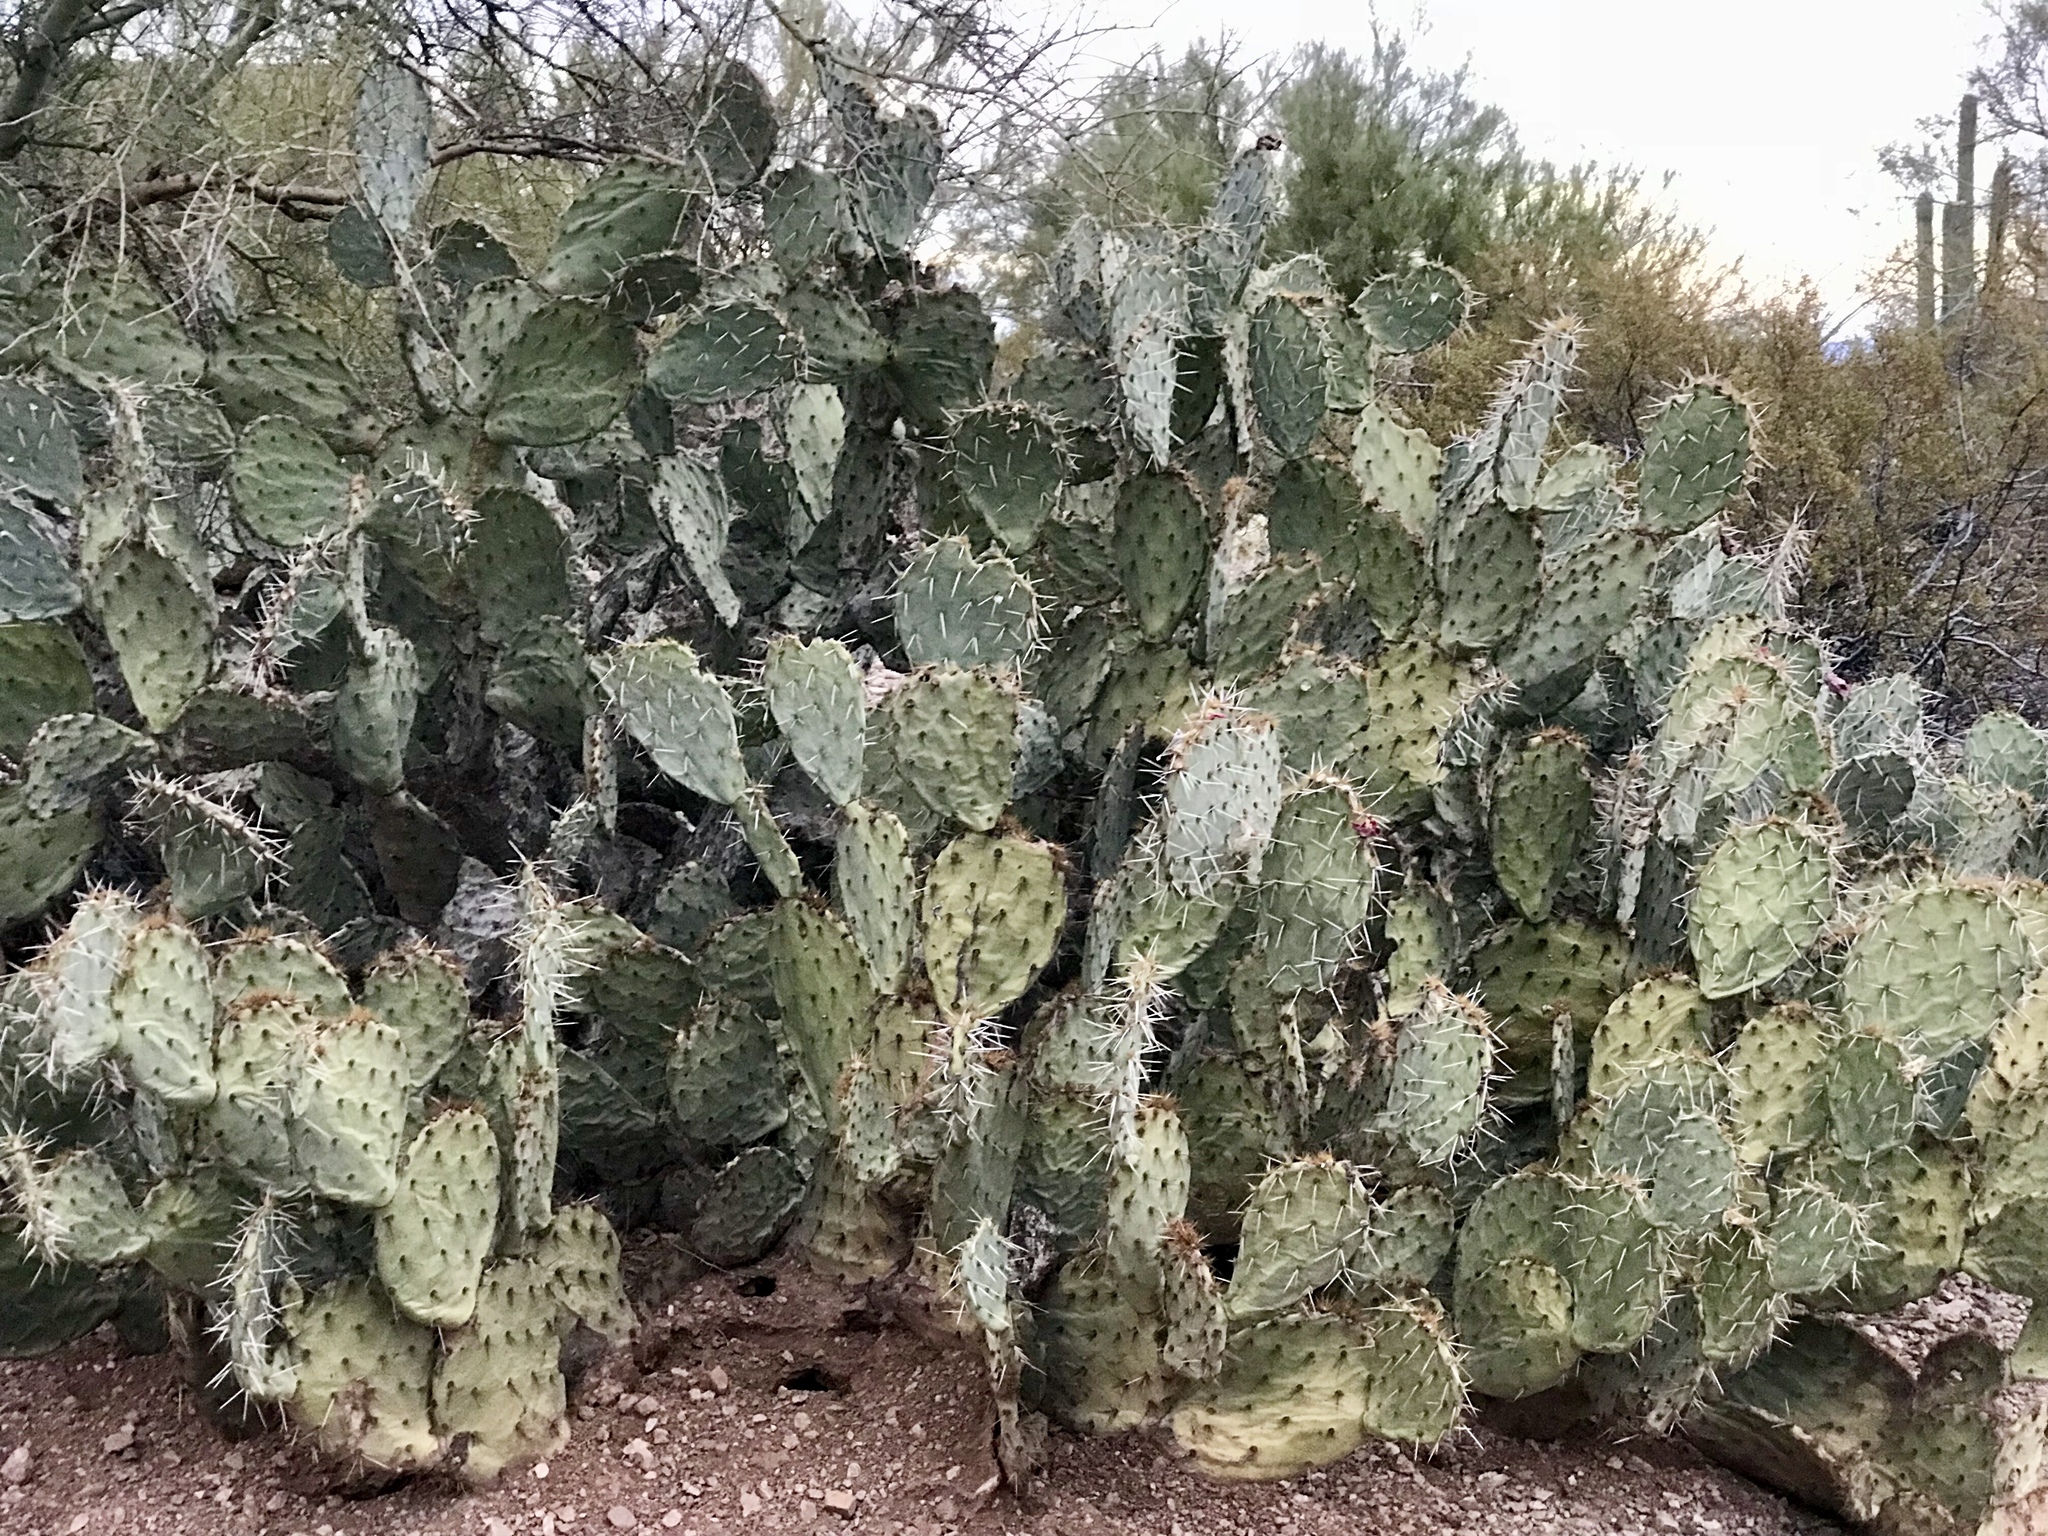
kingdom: Plantae
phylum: Tracheophyta
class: Magnoliopsida
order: Caryophyllales
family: Cactaceae
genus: Opuntia
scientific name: Opuntia engelmannii
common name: Cactus-apple
